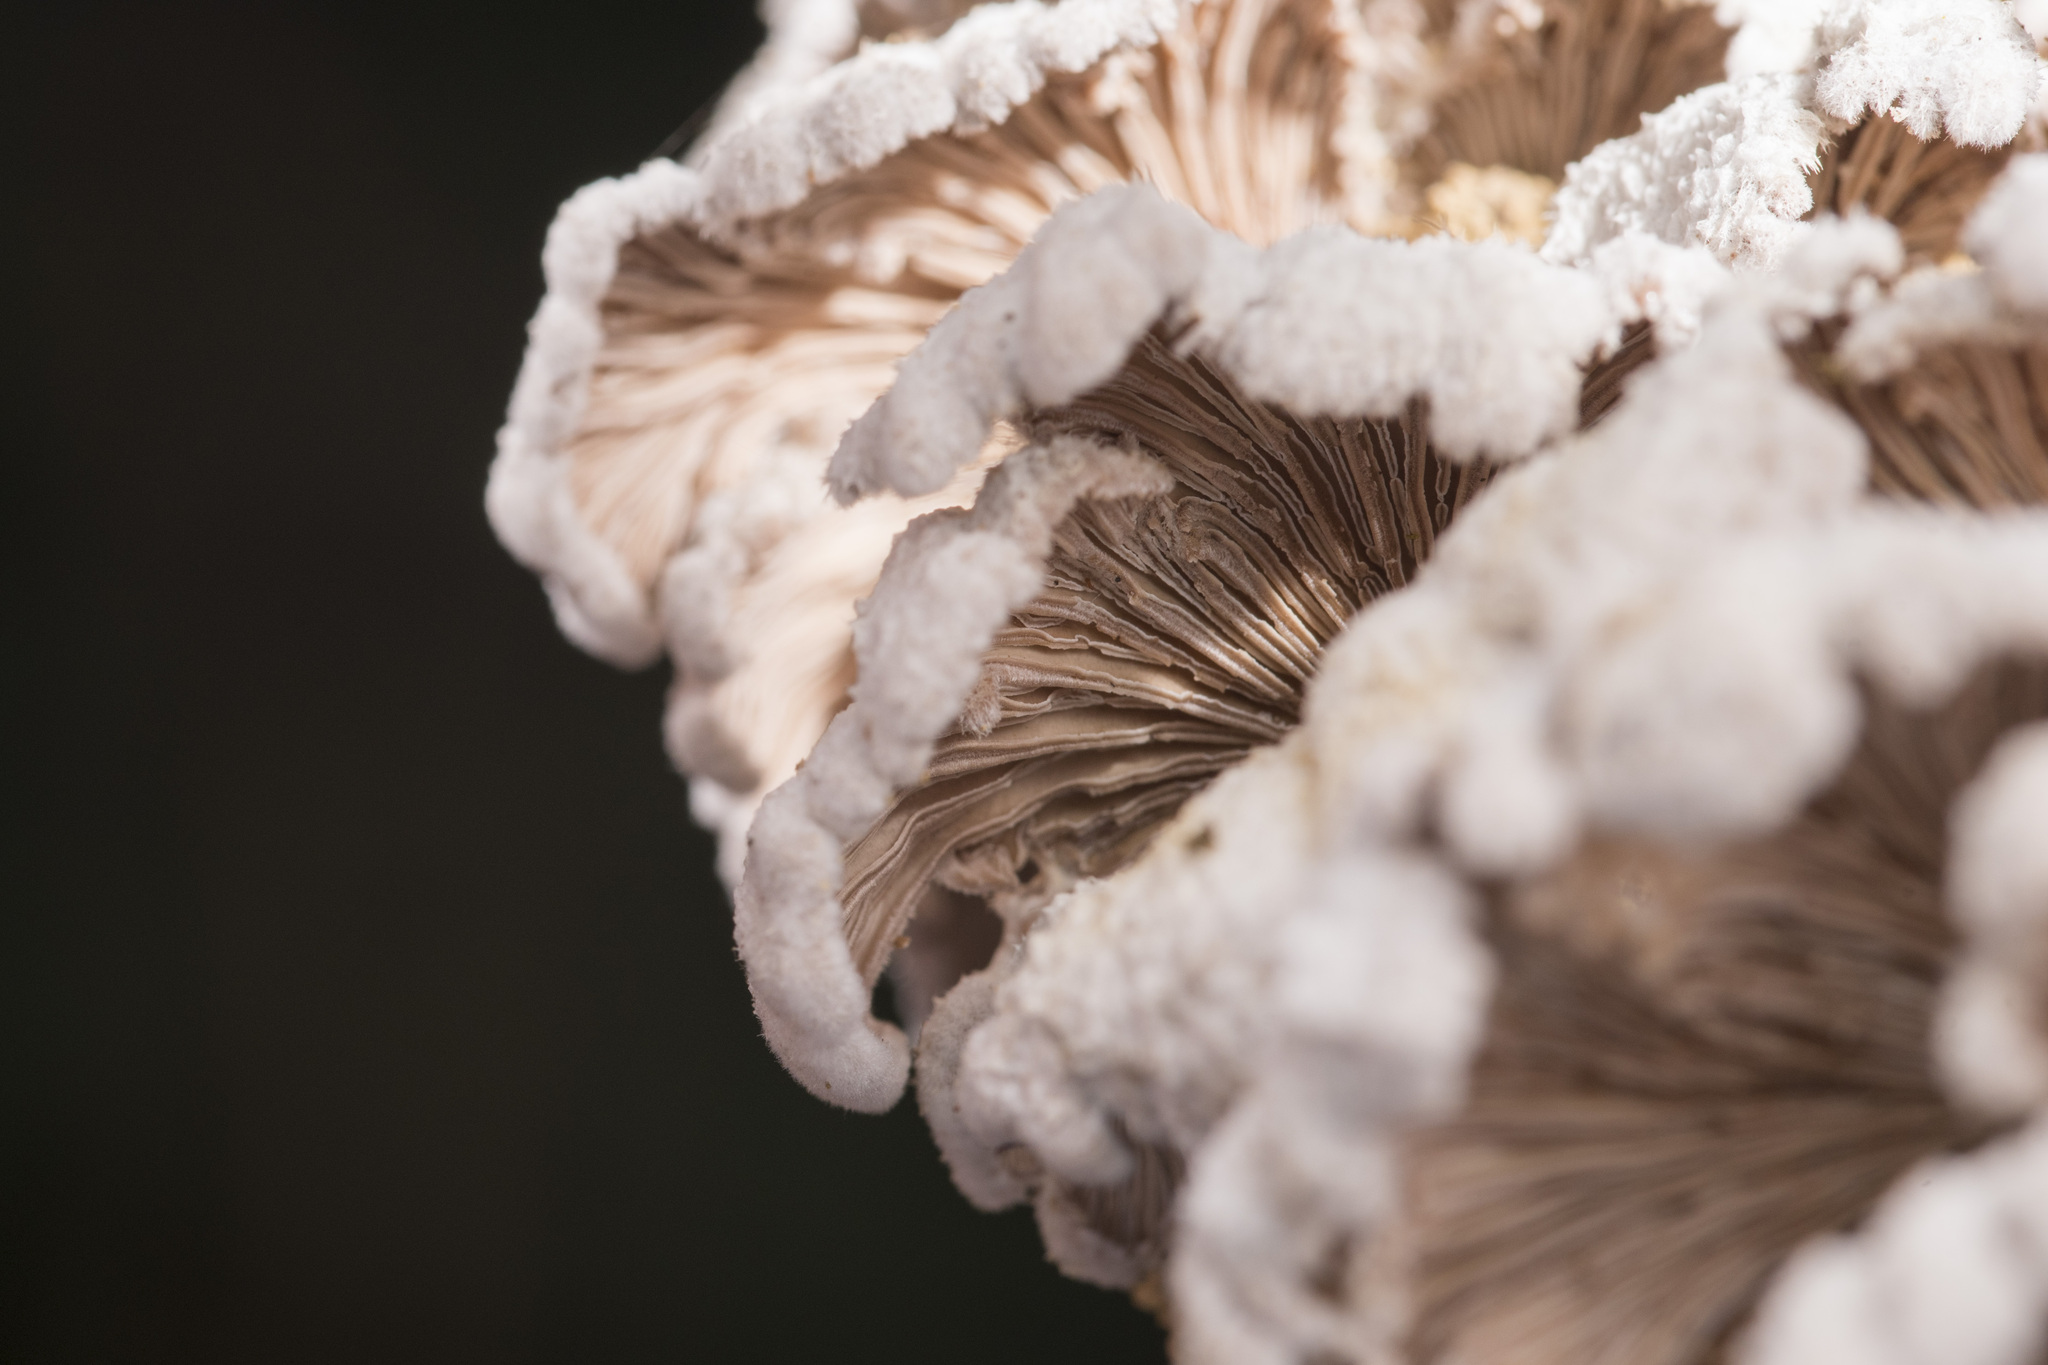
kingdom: Fungi
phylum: Basidiomycota
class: Agaricomycetes
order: Agaricales
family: Schizophyllaceae
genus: Schizophyllum
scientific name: Schizophyllum commune
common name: Common porecrust
